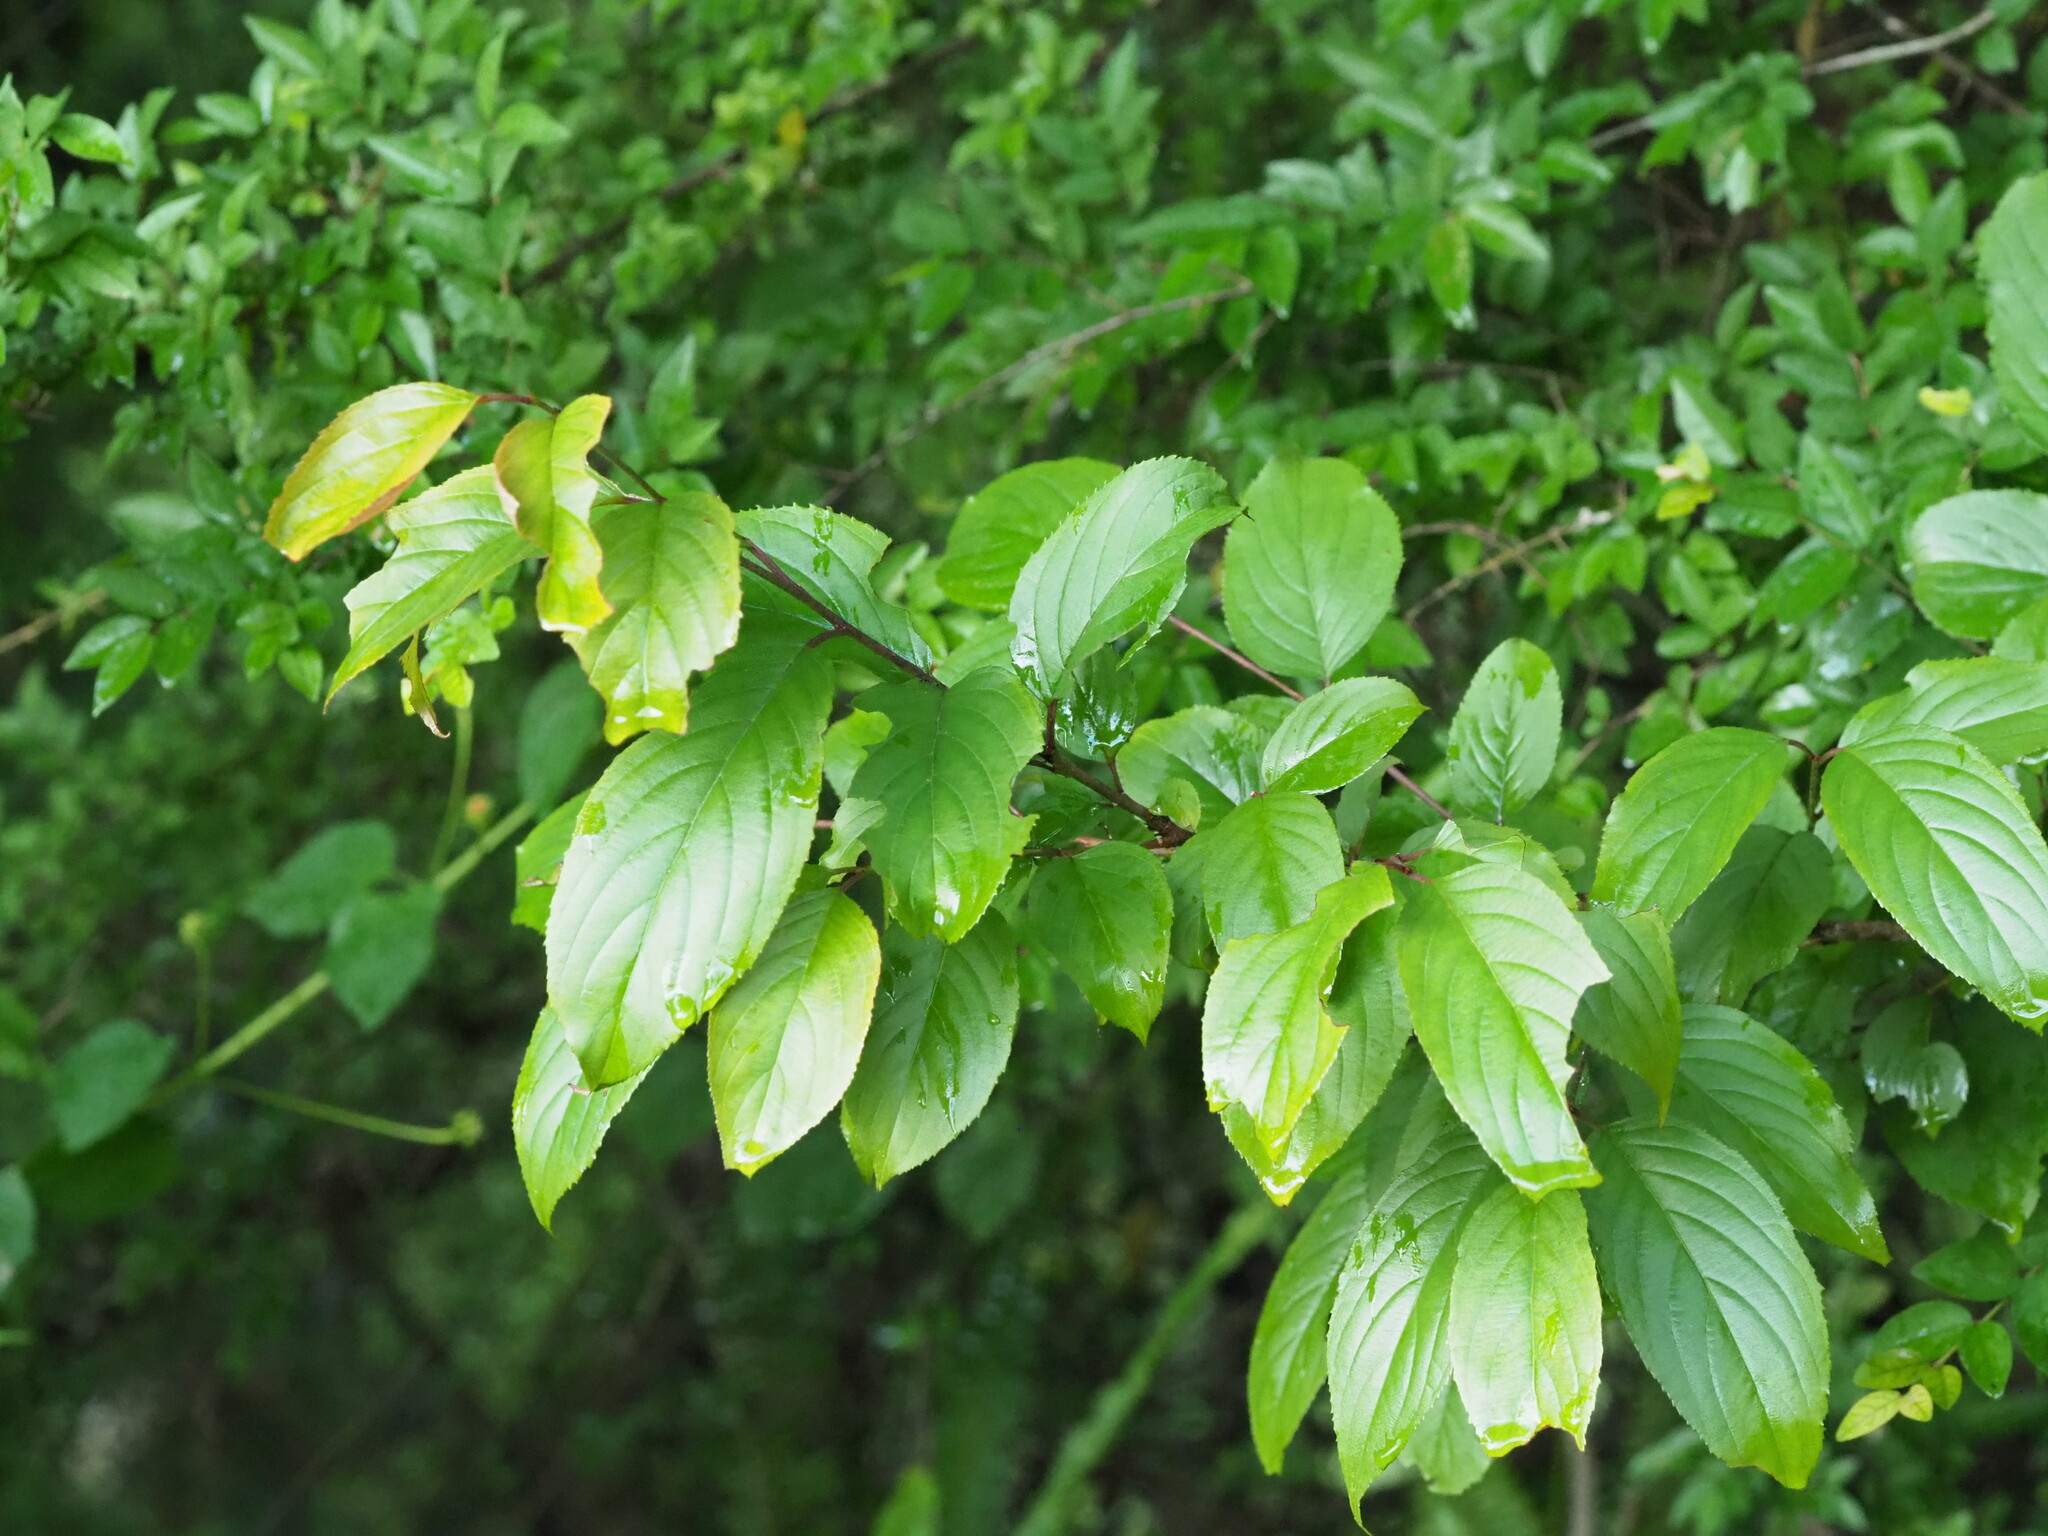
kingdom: Plantae
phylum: Tracheophyta
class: Magnoliopsida
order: Rosales
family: Rhamnaceae
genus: Rhamnus
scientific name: Rhamnus nakaharae
